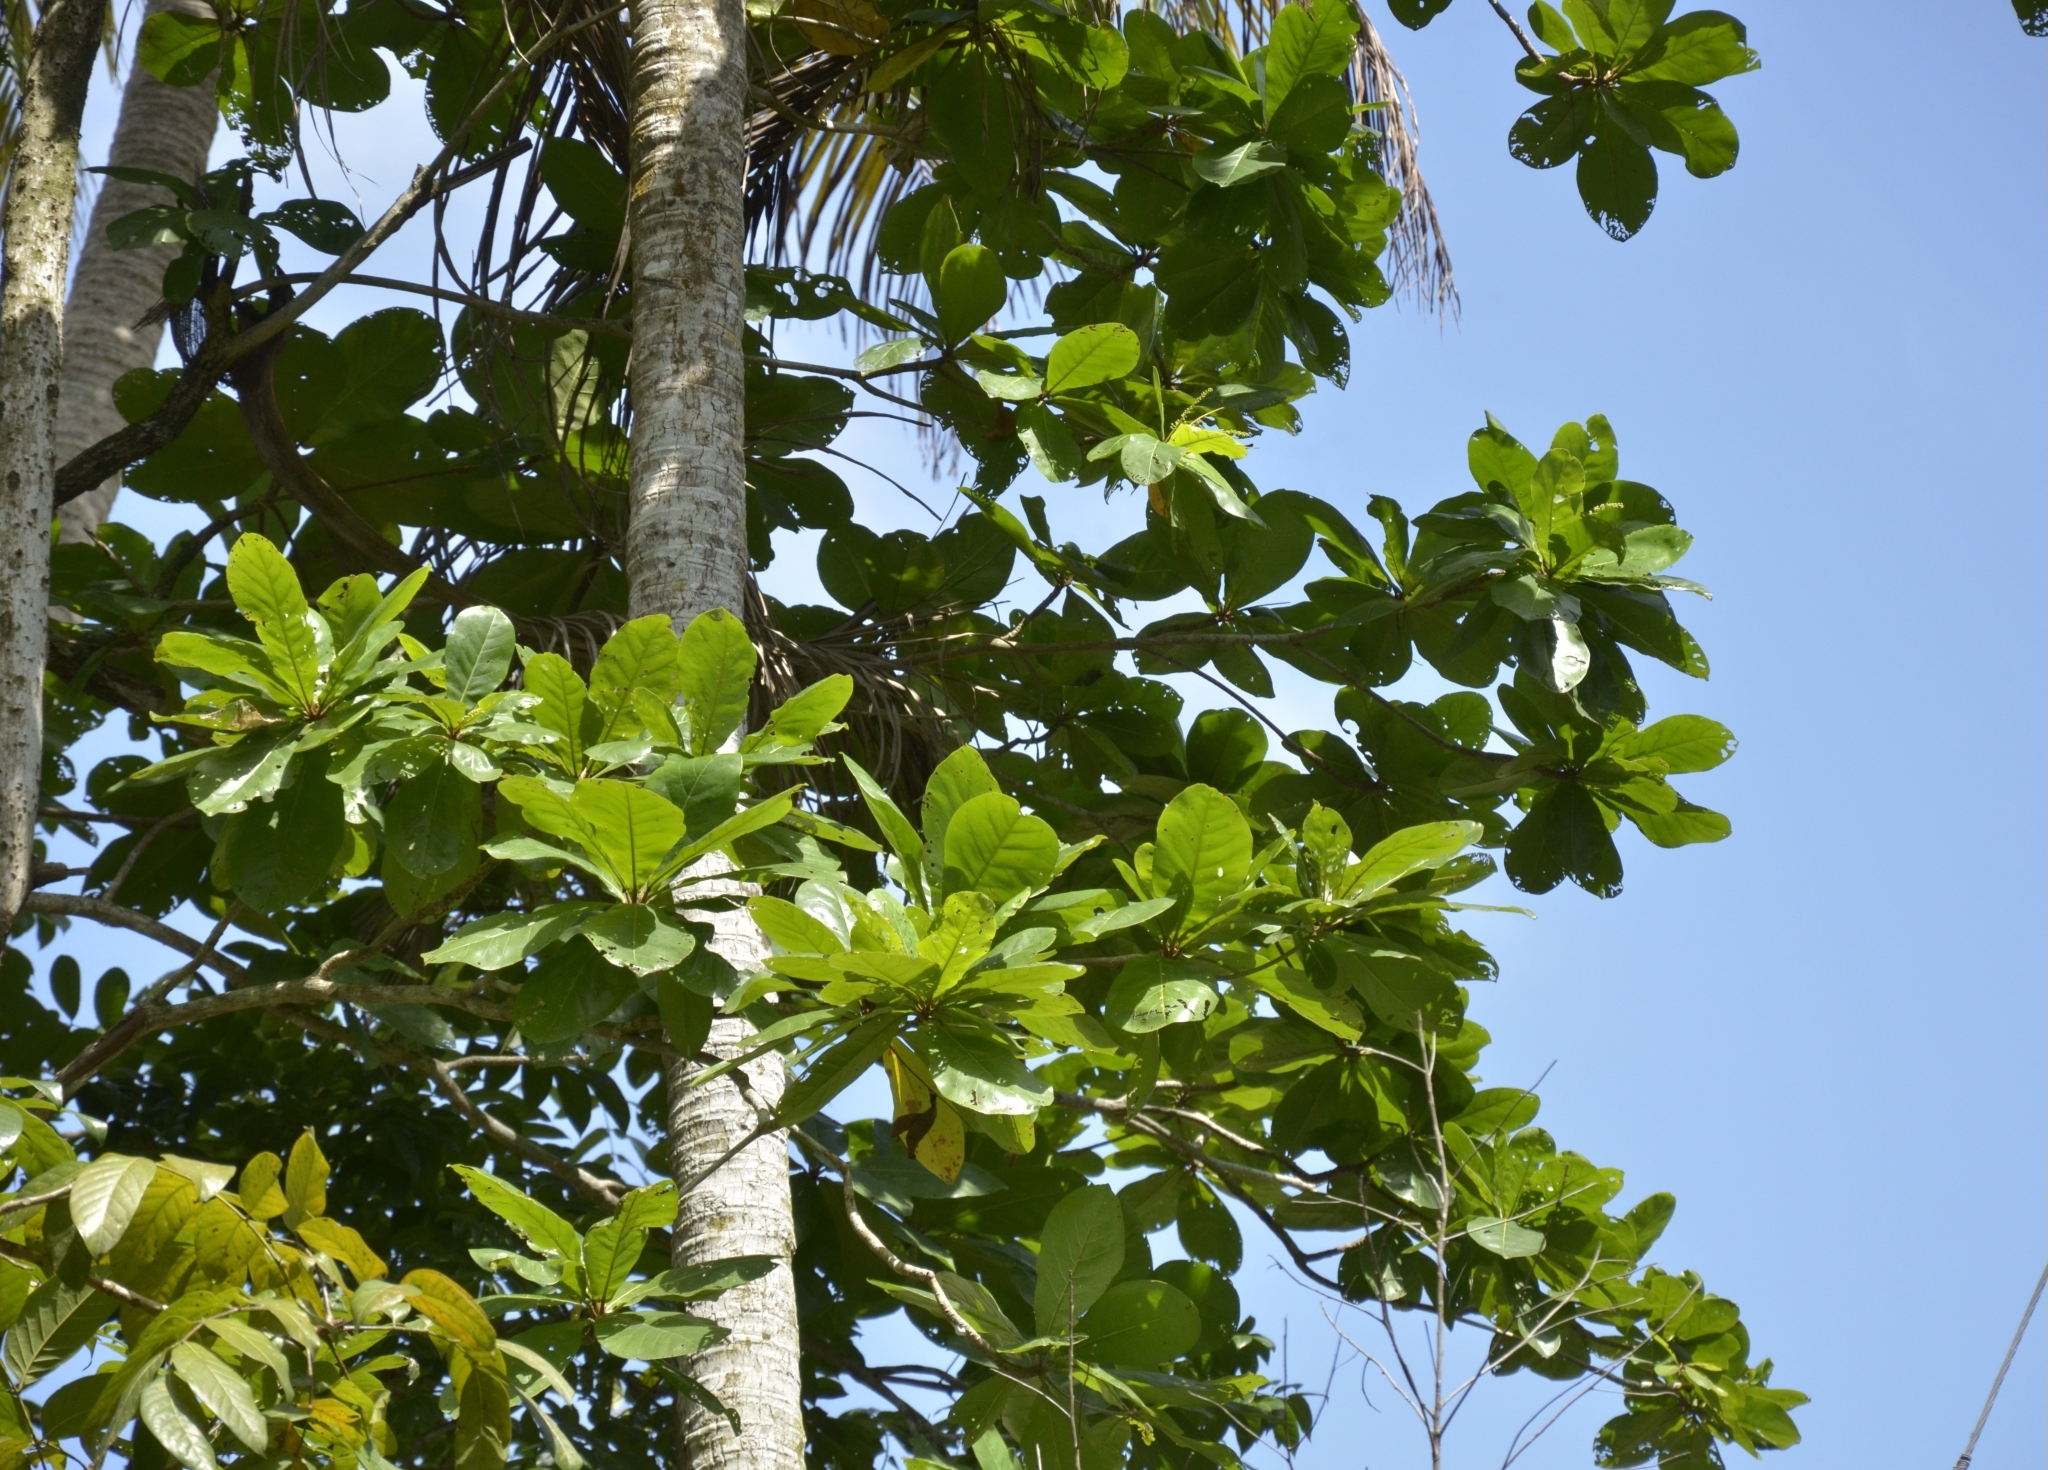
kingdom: Plantae
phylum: Tracheophyta
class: Magnoliopsida
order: Myrtales
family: Combretaceae
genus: Terminalia
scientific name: Terminalia catappa
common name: Tropical almond
